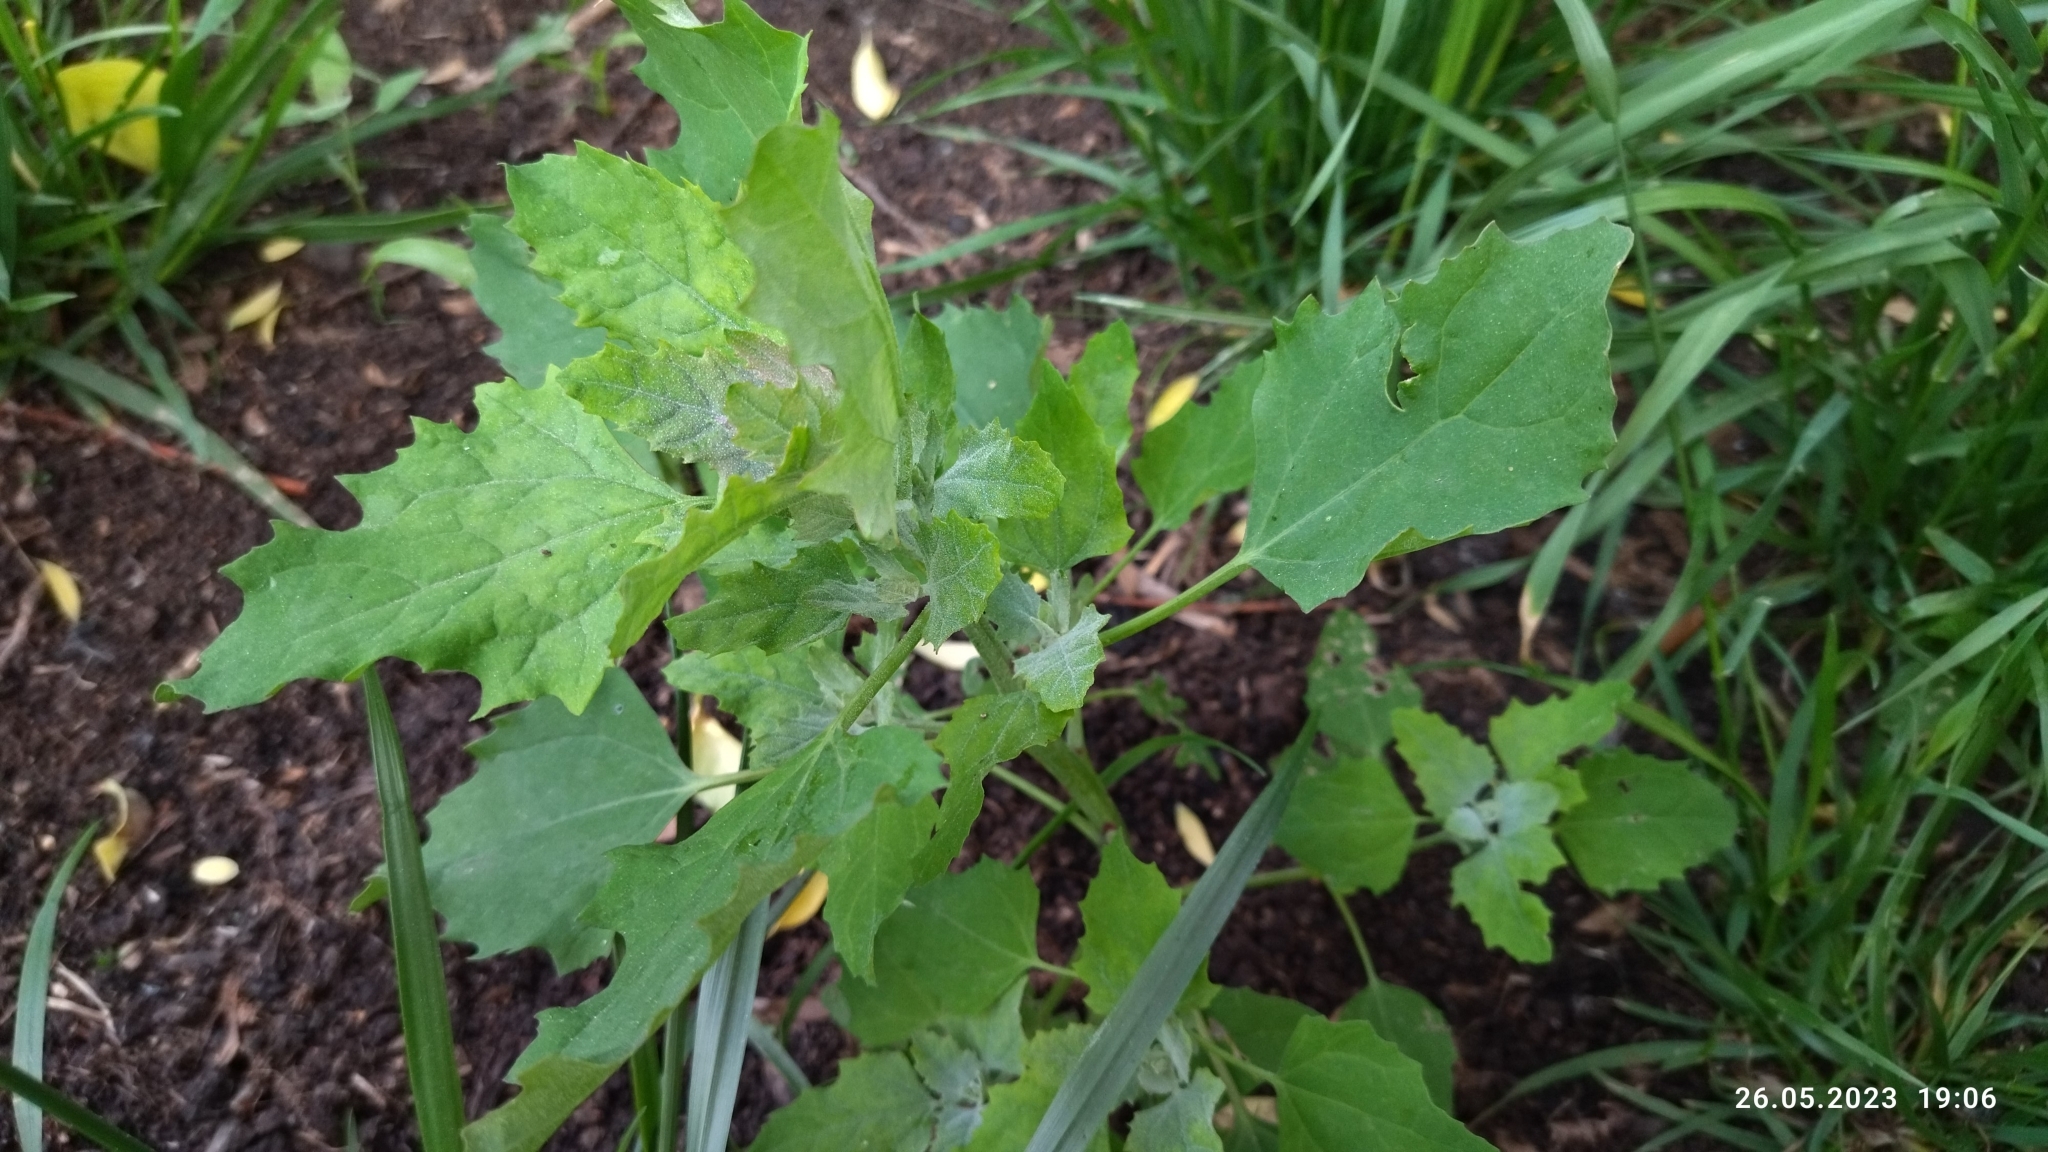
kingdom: Plantae
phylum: Tracheophyta
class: Magnoliopsida
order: Caryophyllales
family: Amaranthaceae
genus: Chenopodium
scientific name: Chenopodium album
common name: Fat-hen
